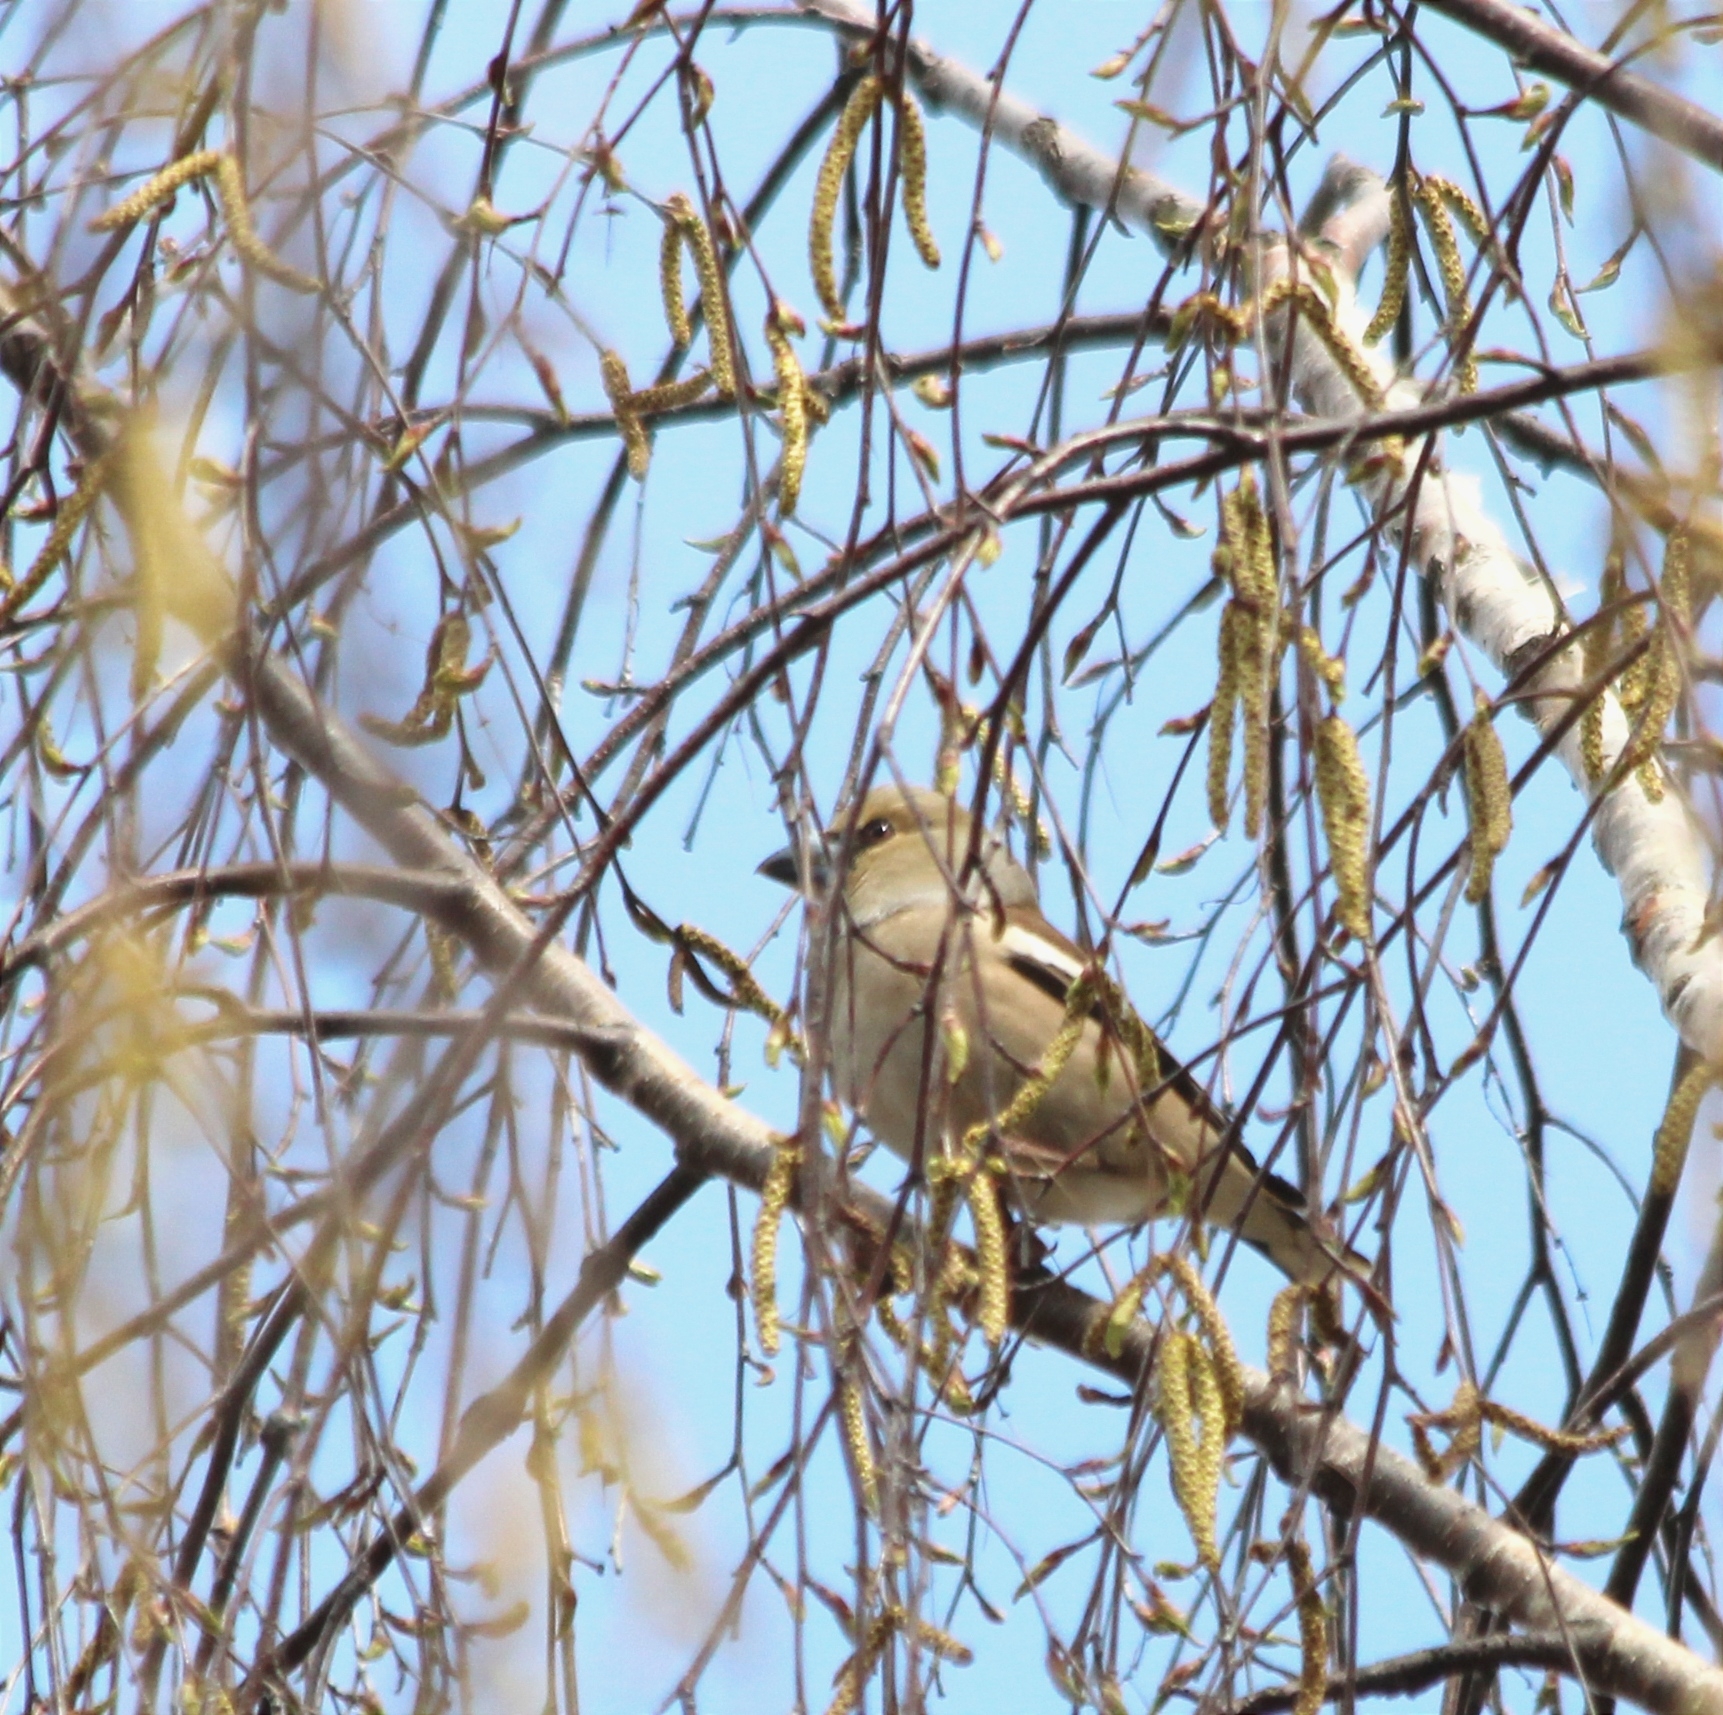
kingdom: Animalia
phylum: Chordata
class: Aves
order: Passeriformes
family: Fringillidae
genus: Coccothraustes
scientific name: Coccothraustes coccothraustes
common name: Hawfinch
